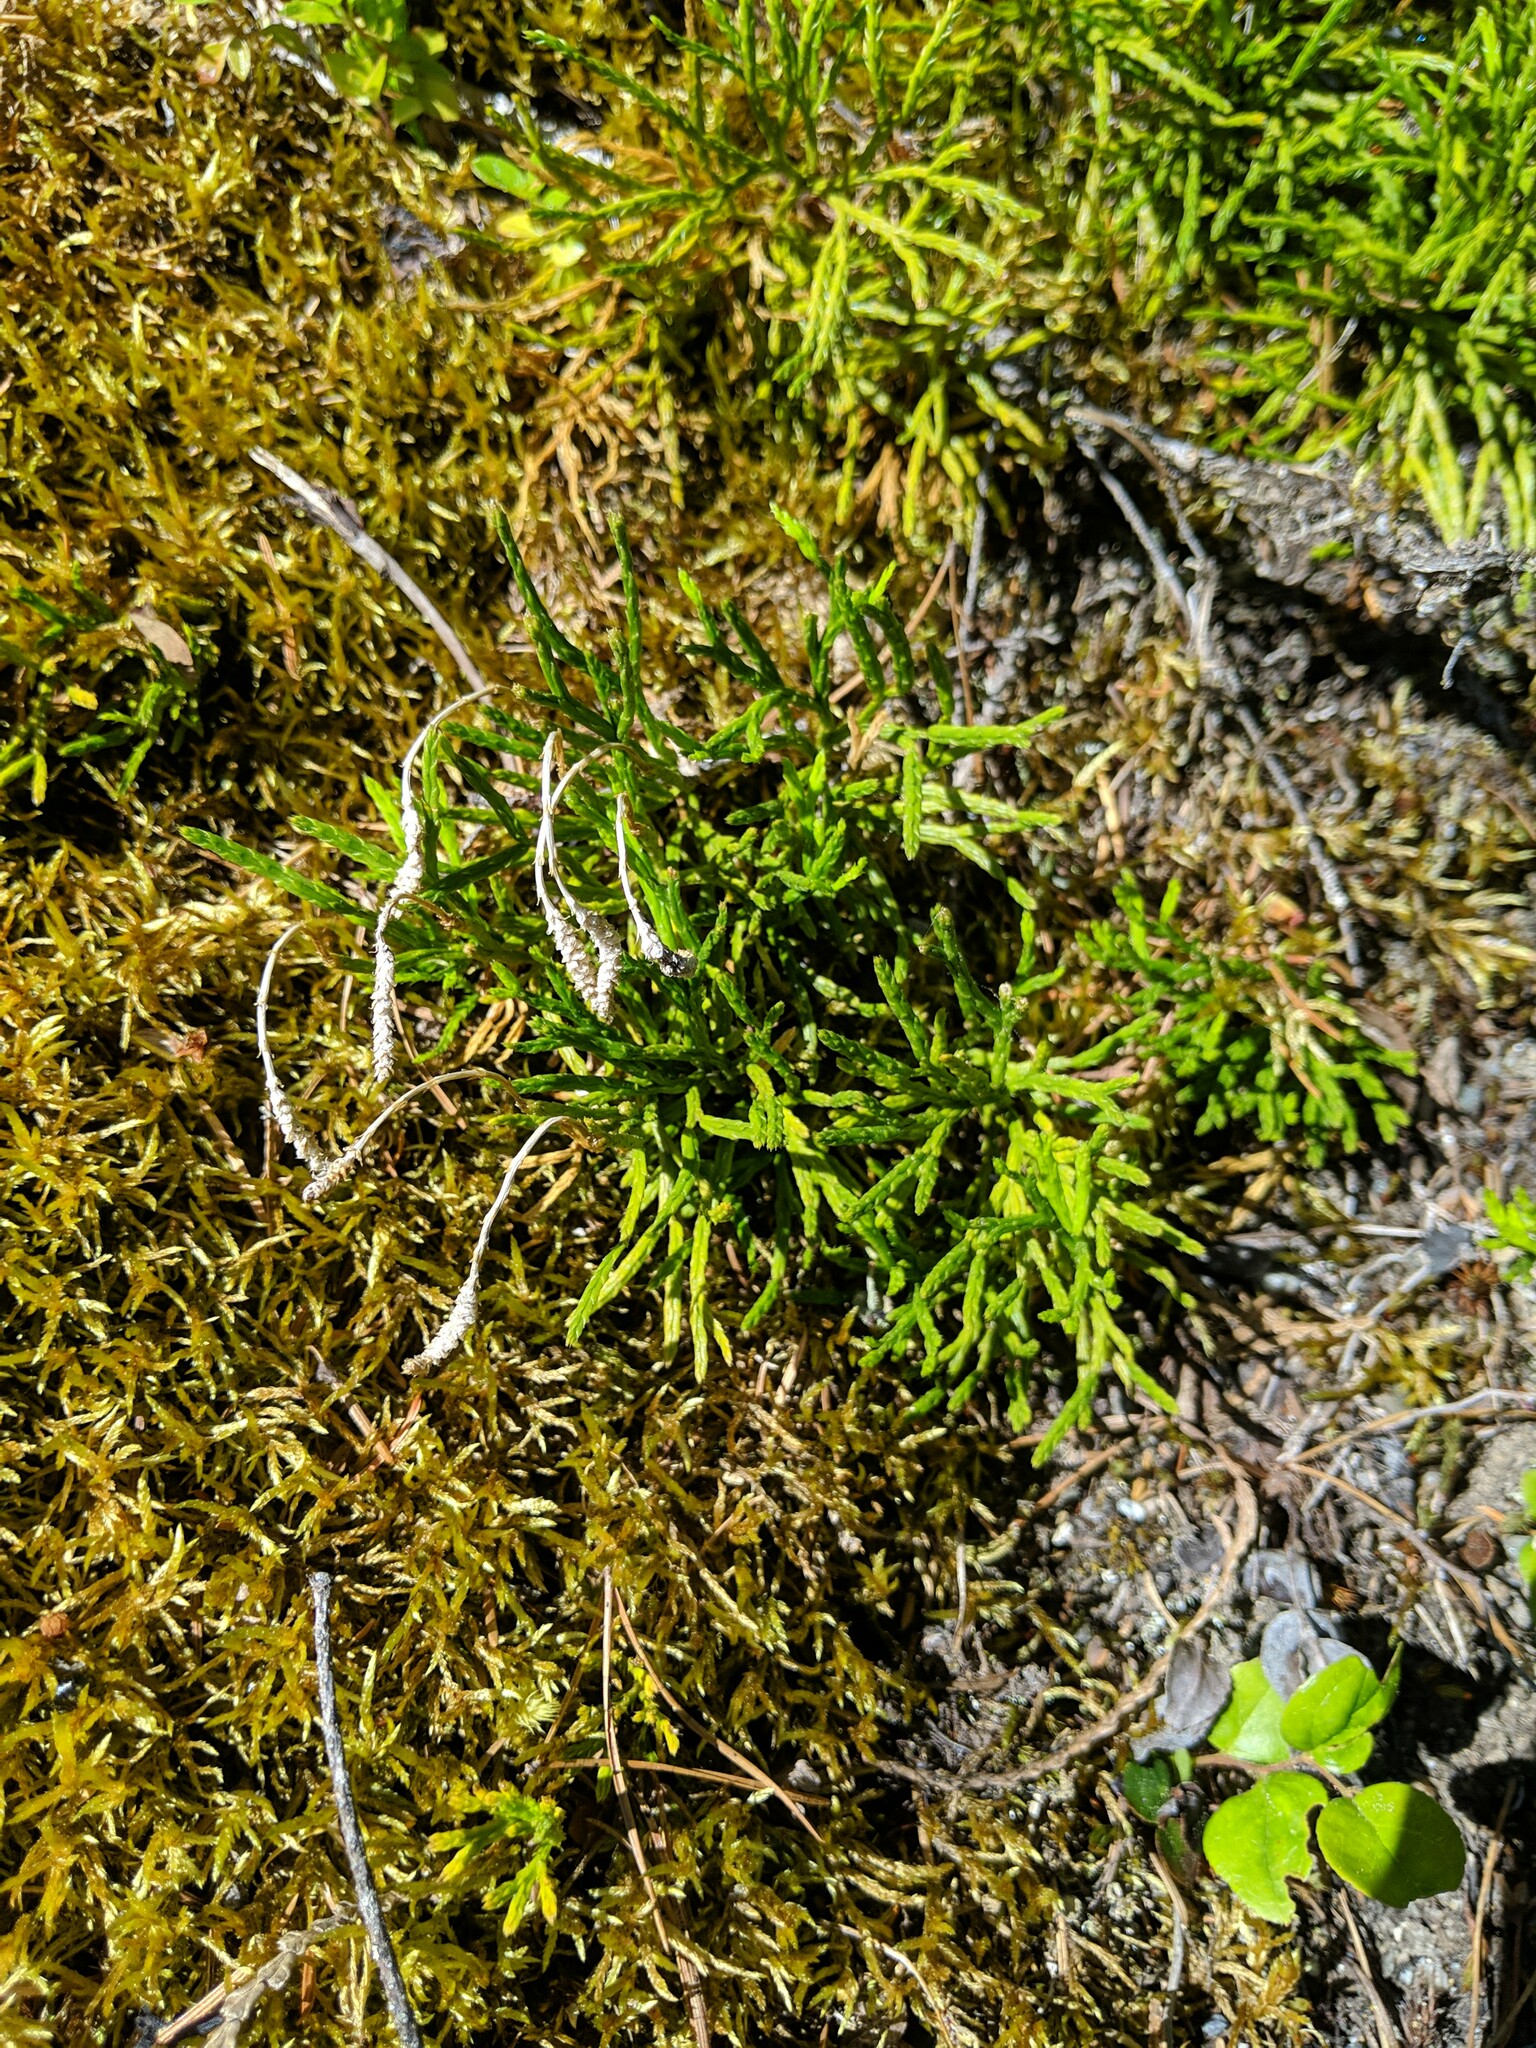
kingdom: Plantae
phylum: Tracheophyta
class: Lycopodiopsida
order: Lycopodiales
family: Lycopodiaceae
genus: Diphasiastrum
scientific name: Diphasiastrum complanatum
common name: Northern running-pine
